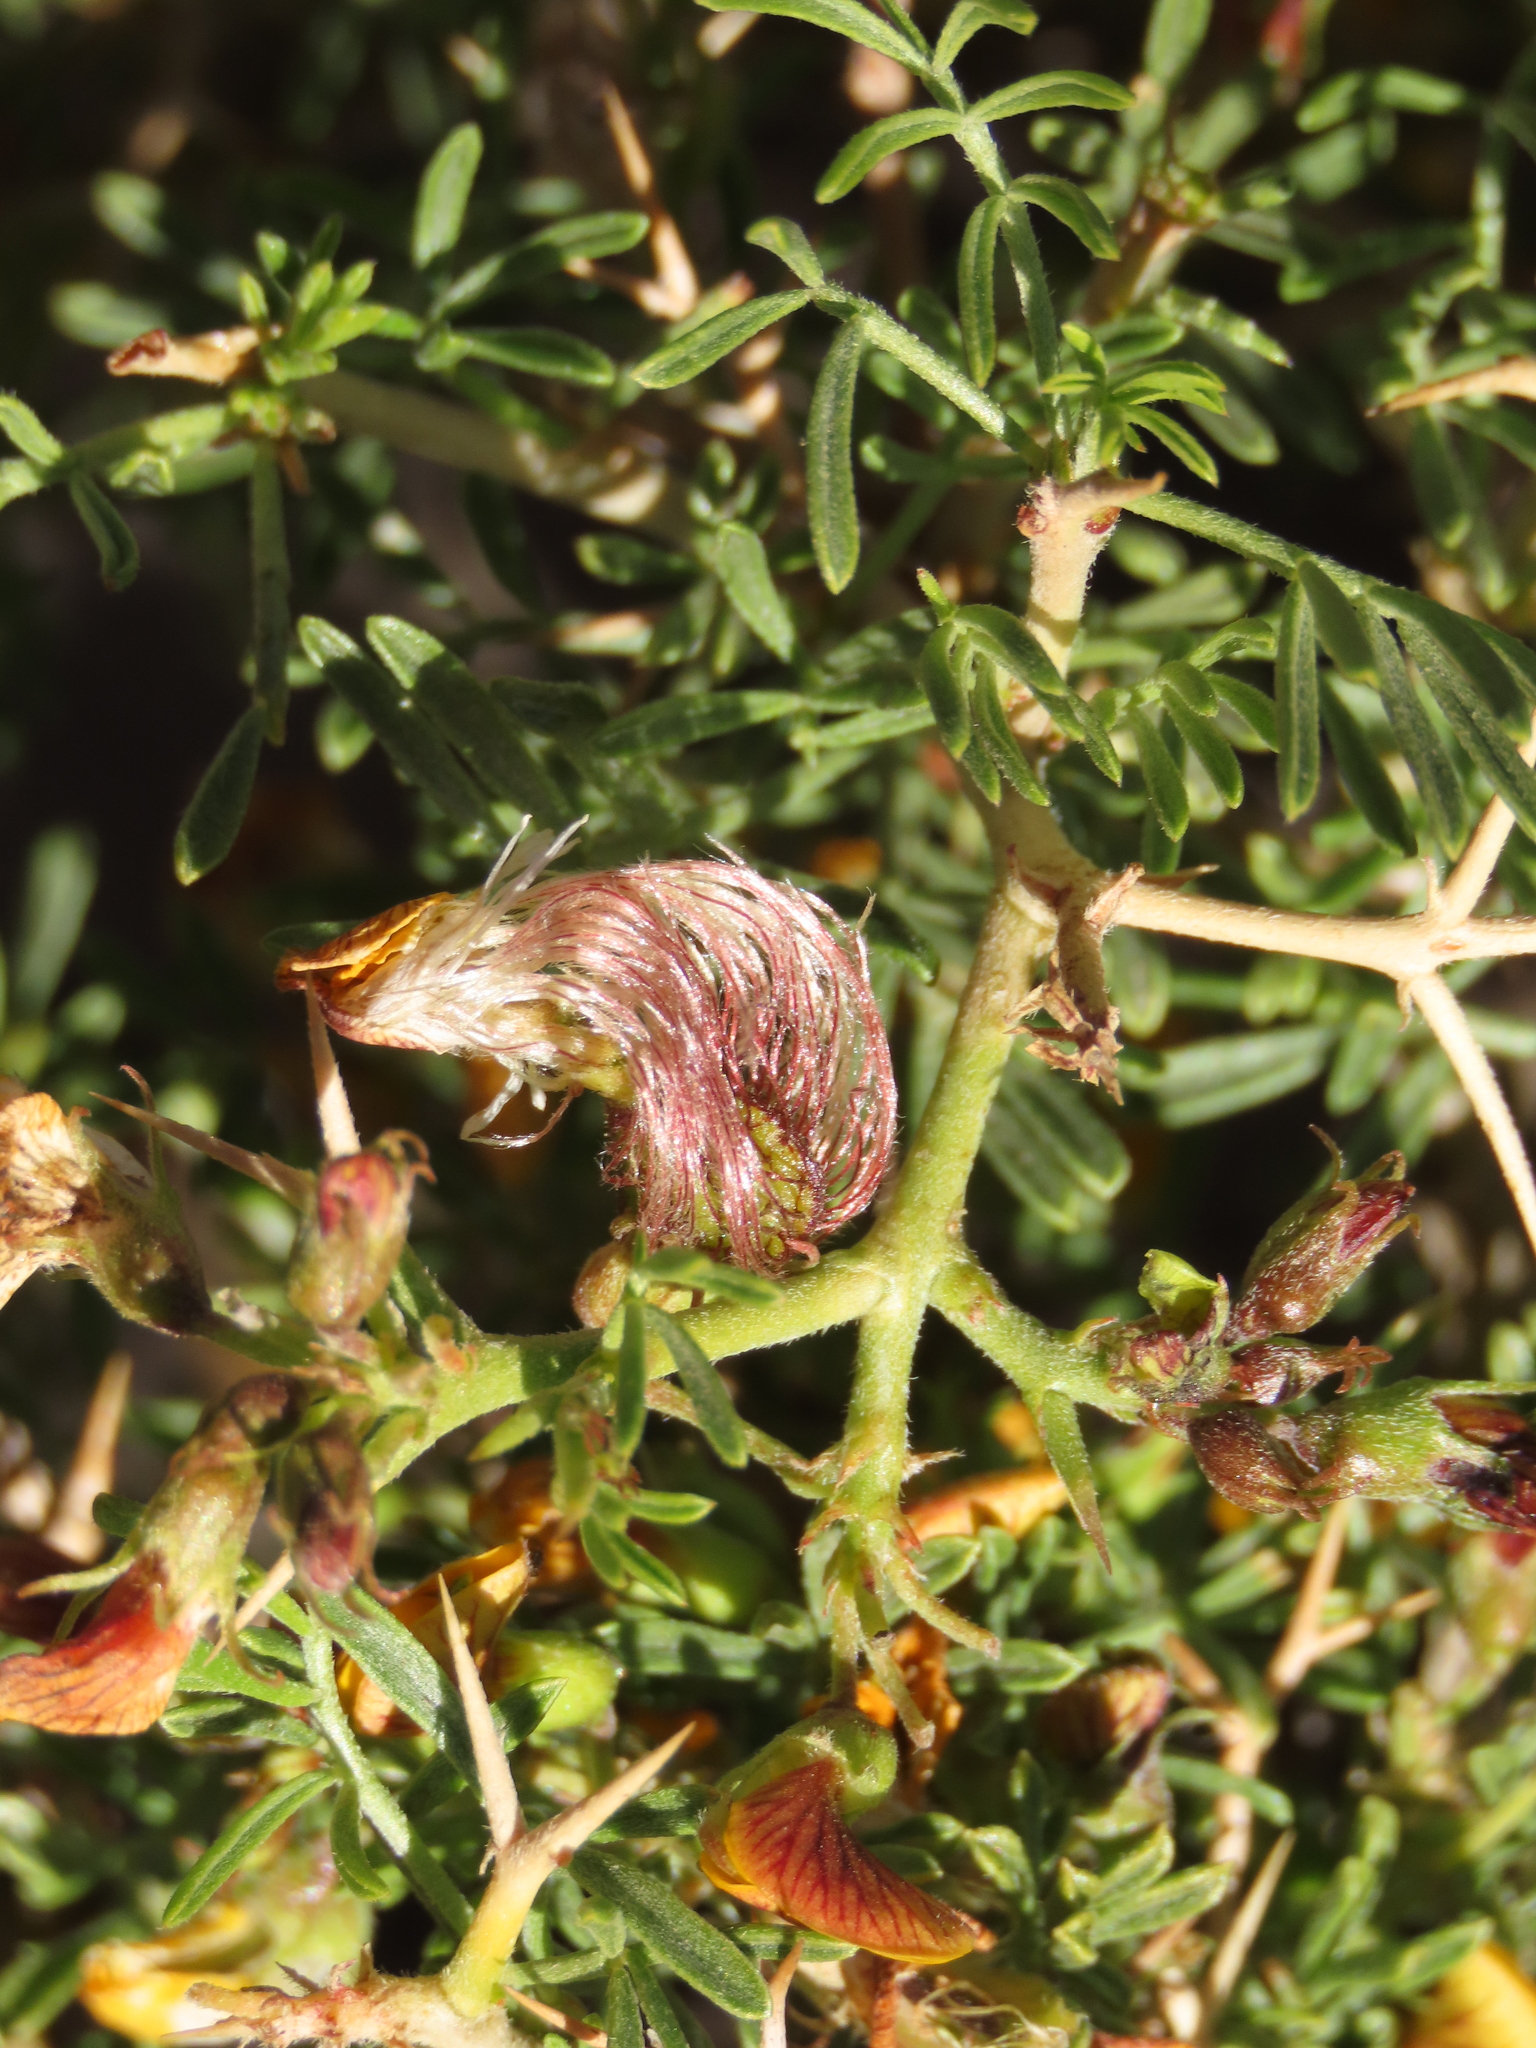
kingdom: Plantae
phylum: Tracheophyta
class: Magnoliopsida
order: Fabales
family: Fabaceae
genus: Adesmia
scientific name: Adesmia gracilis
